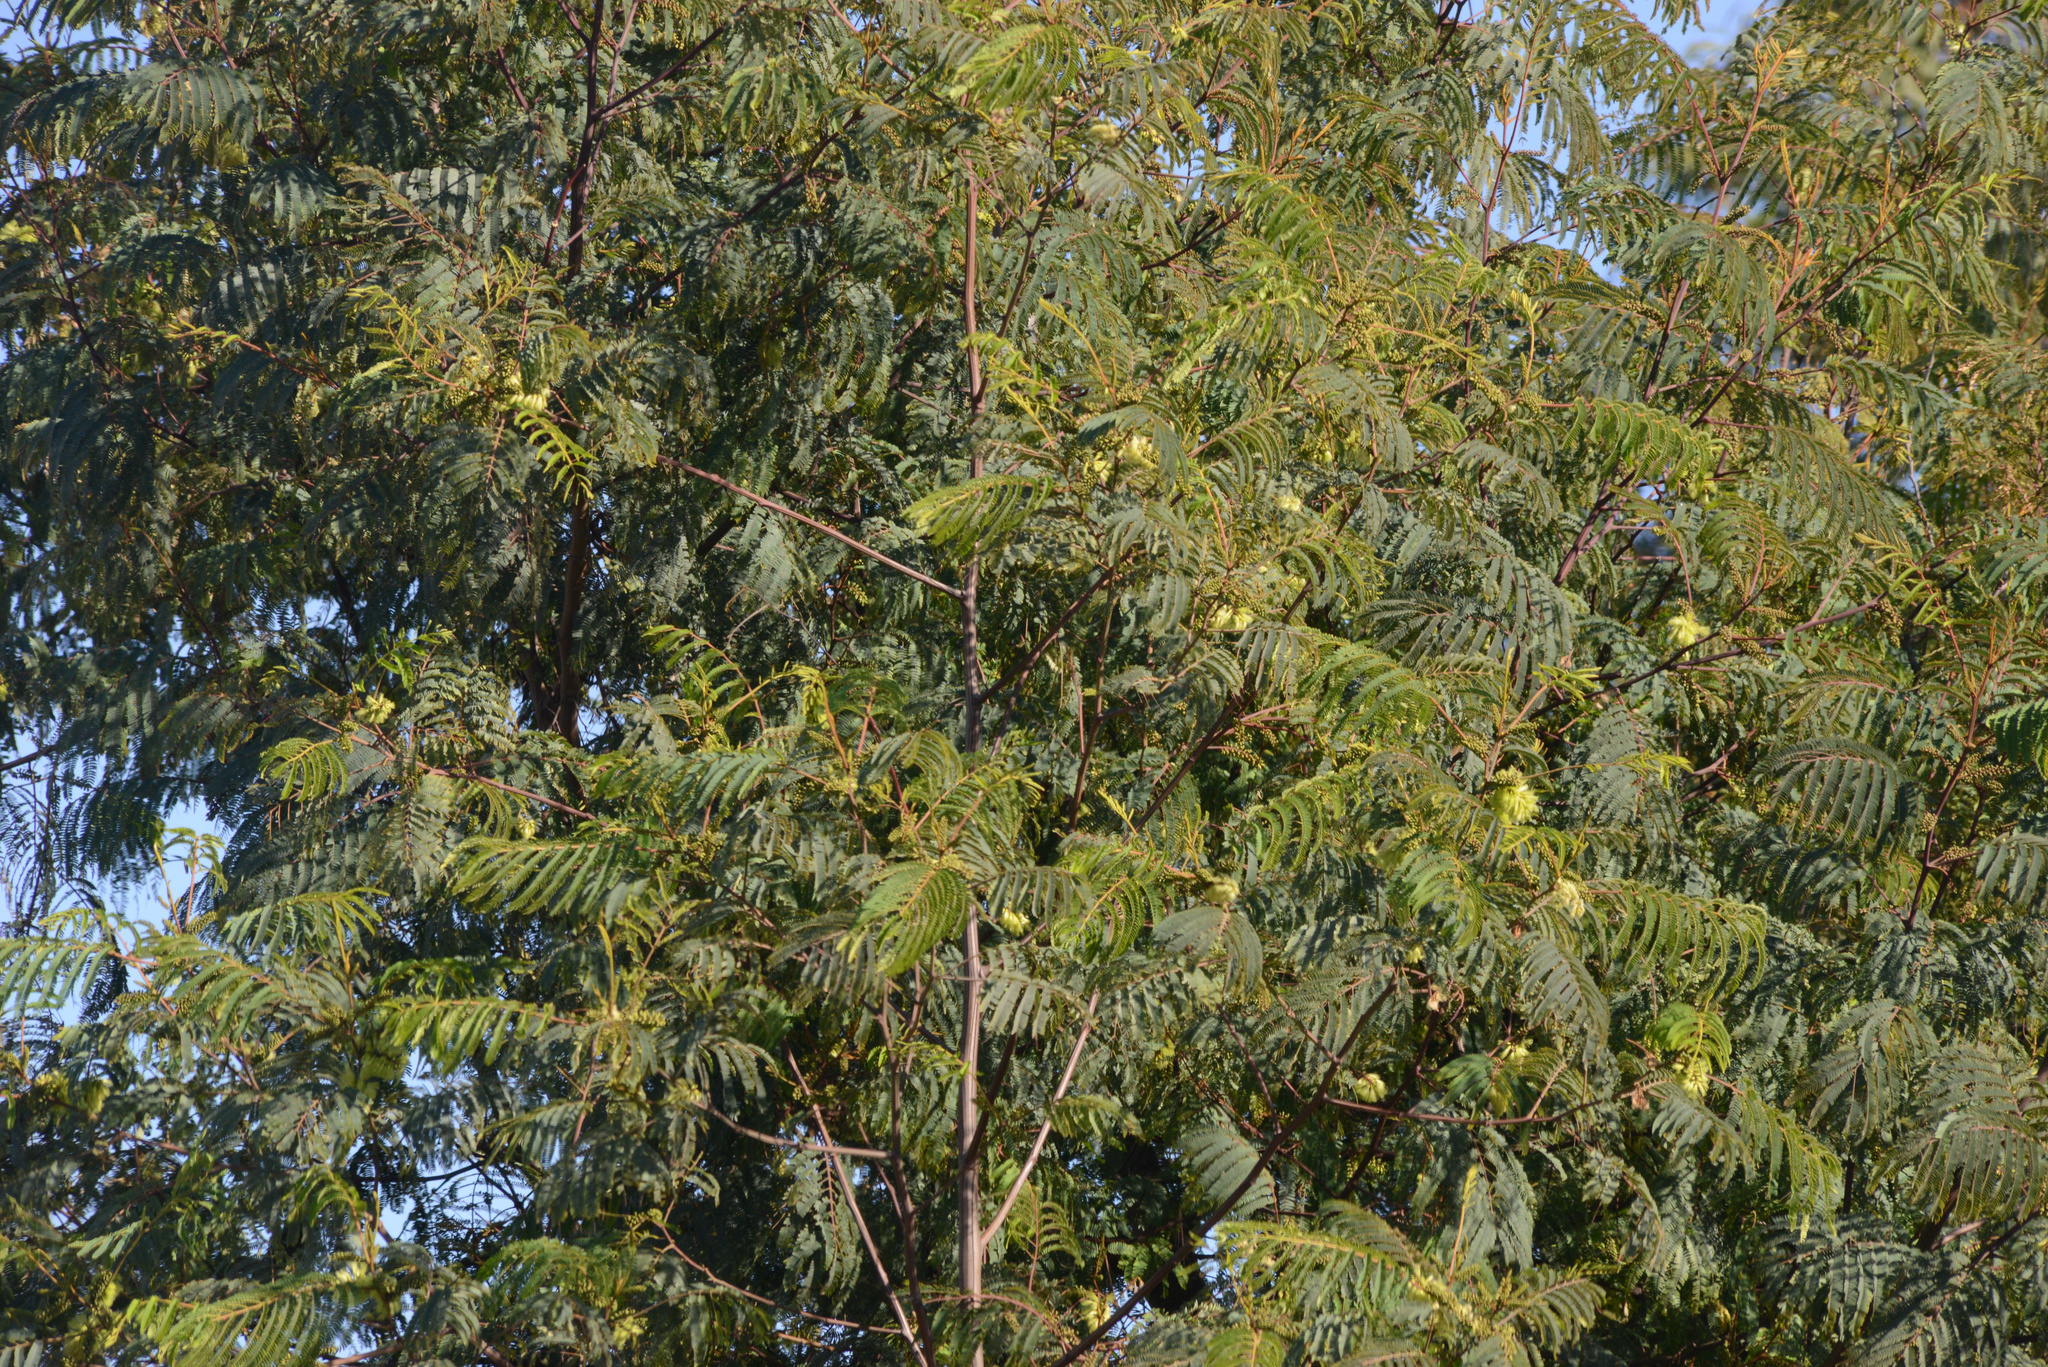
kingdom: Plantae
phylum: Tracheophyta
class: Magnoliopsida
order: Fabales
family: Fabaceae
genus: Paraserianthes
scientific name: Paraserianthes lophantha
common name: Plume albizia
